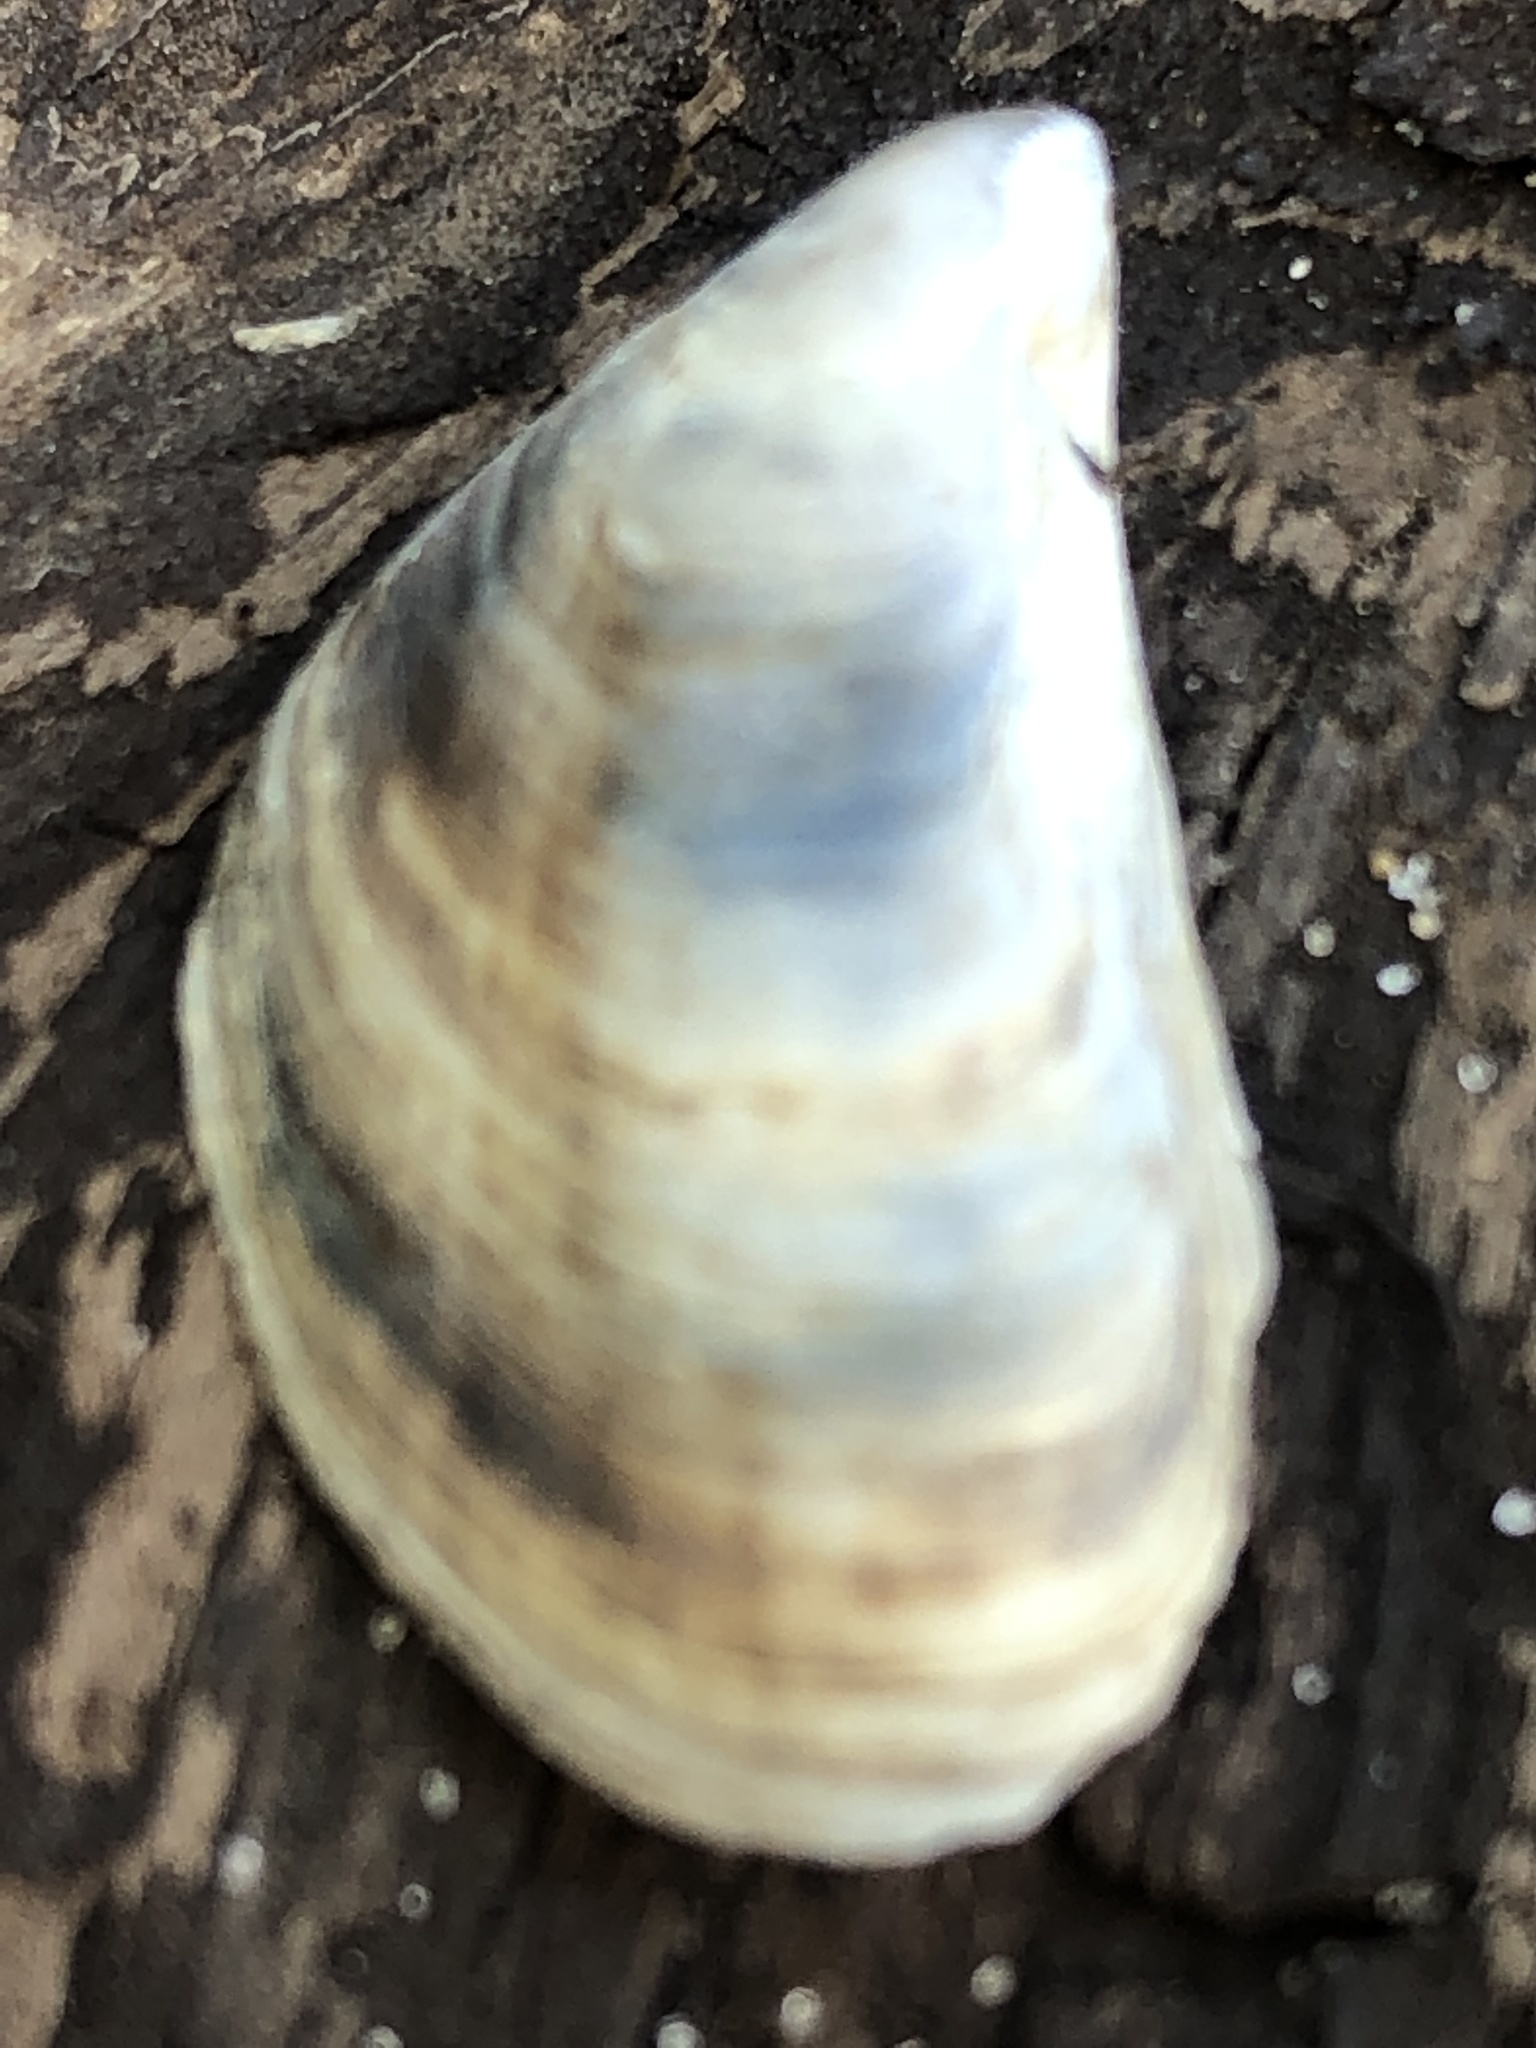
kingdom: Animalia
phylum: Mollusca
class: Bivalvia
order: Myida
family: Dreissenidae
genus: Dreissena
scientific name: Dreissena bugensis
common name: Quagga mussel
